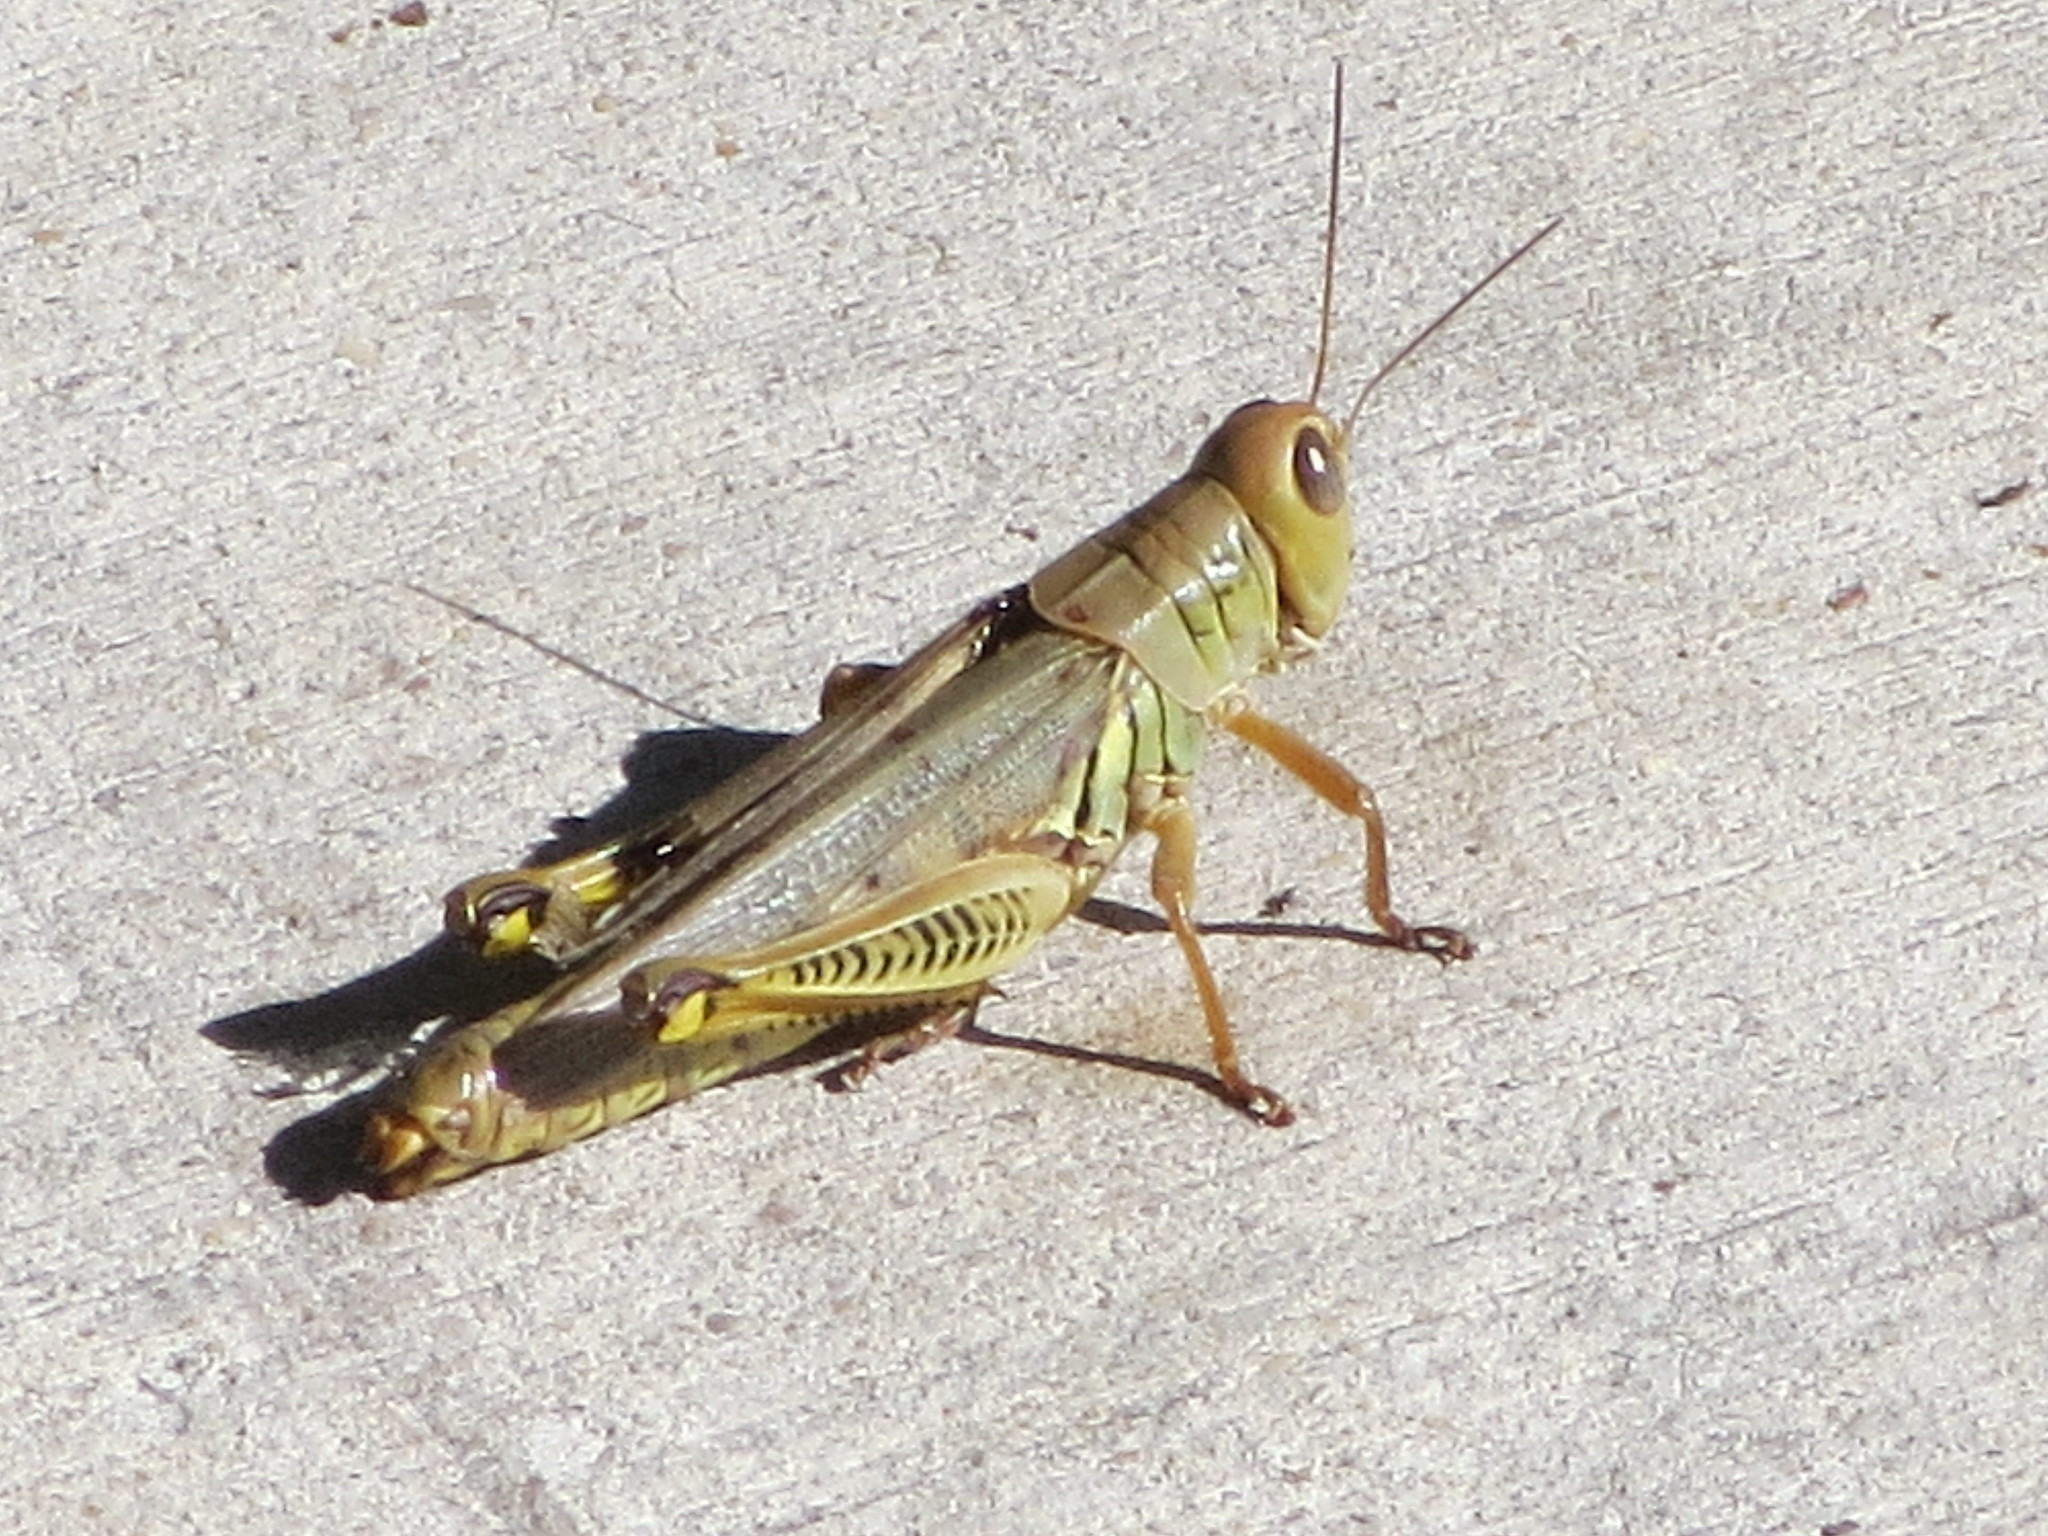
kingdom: Animalia
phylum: Arthropoda
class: Insecta
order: Orthoptera
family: Acrididae
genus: Melanoplus
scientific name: Melanoplus differentialis
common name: Differential grasshopper
